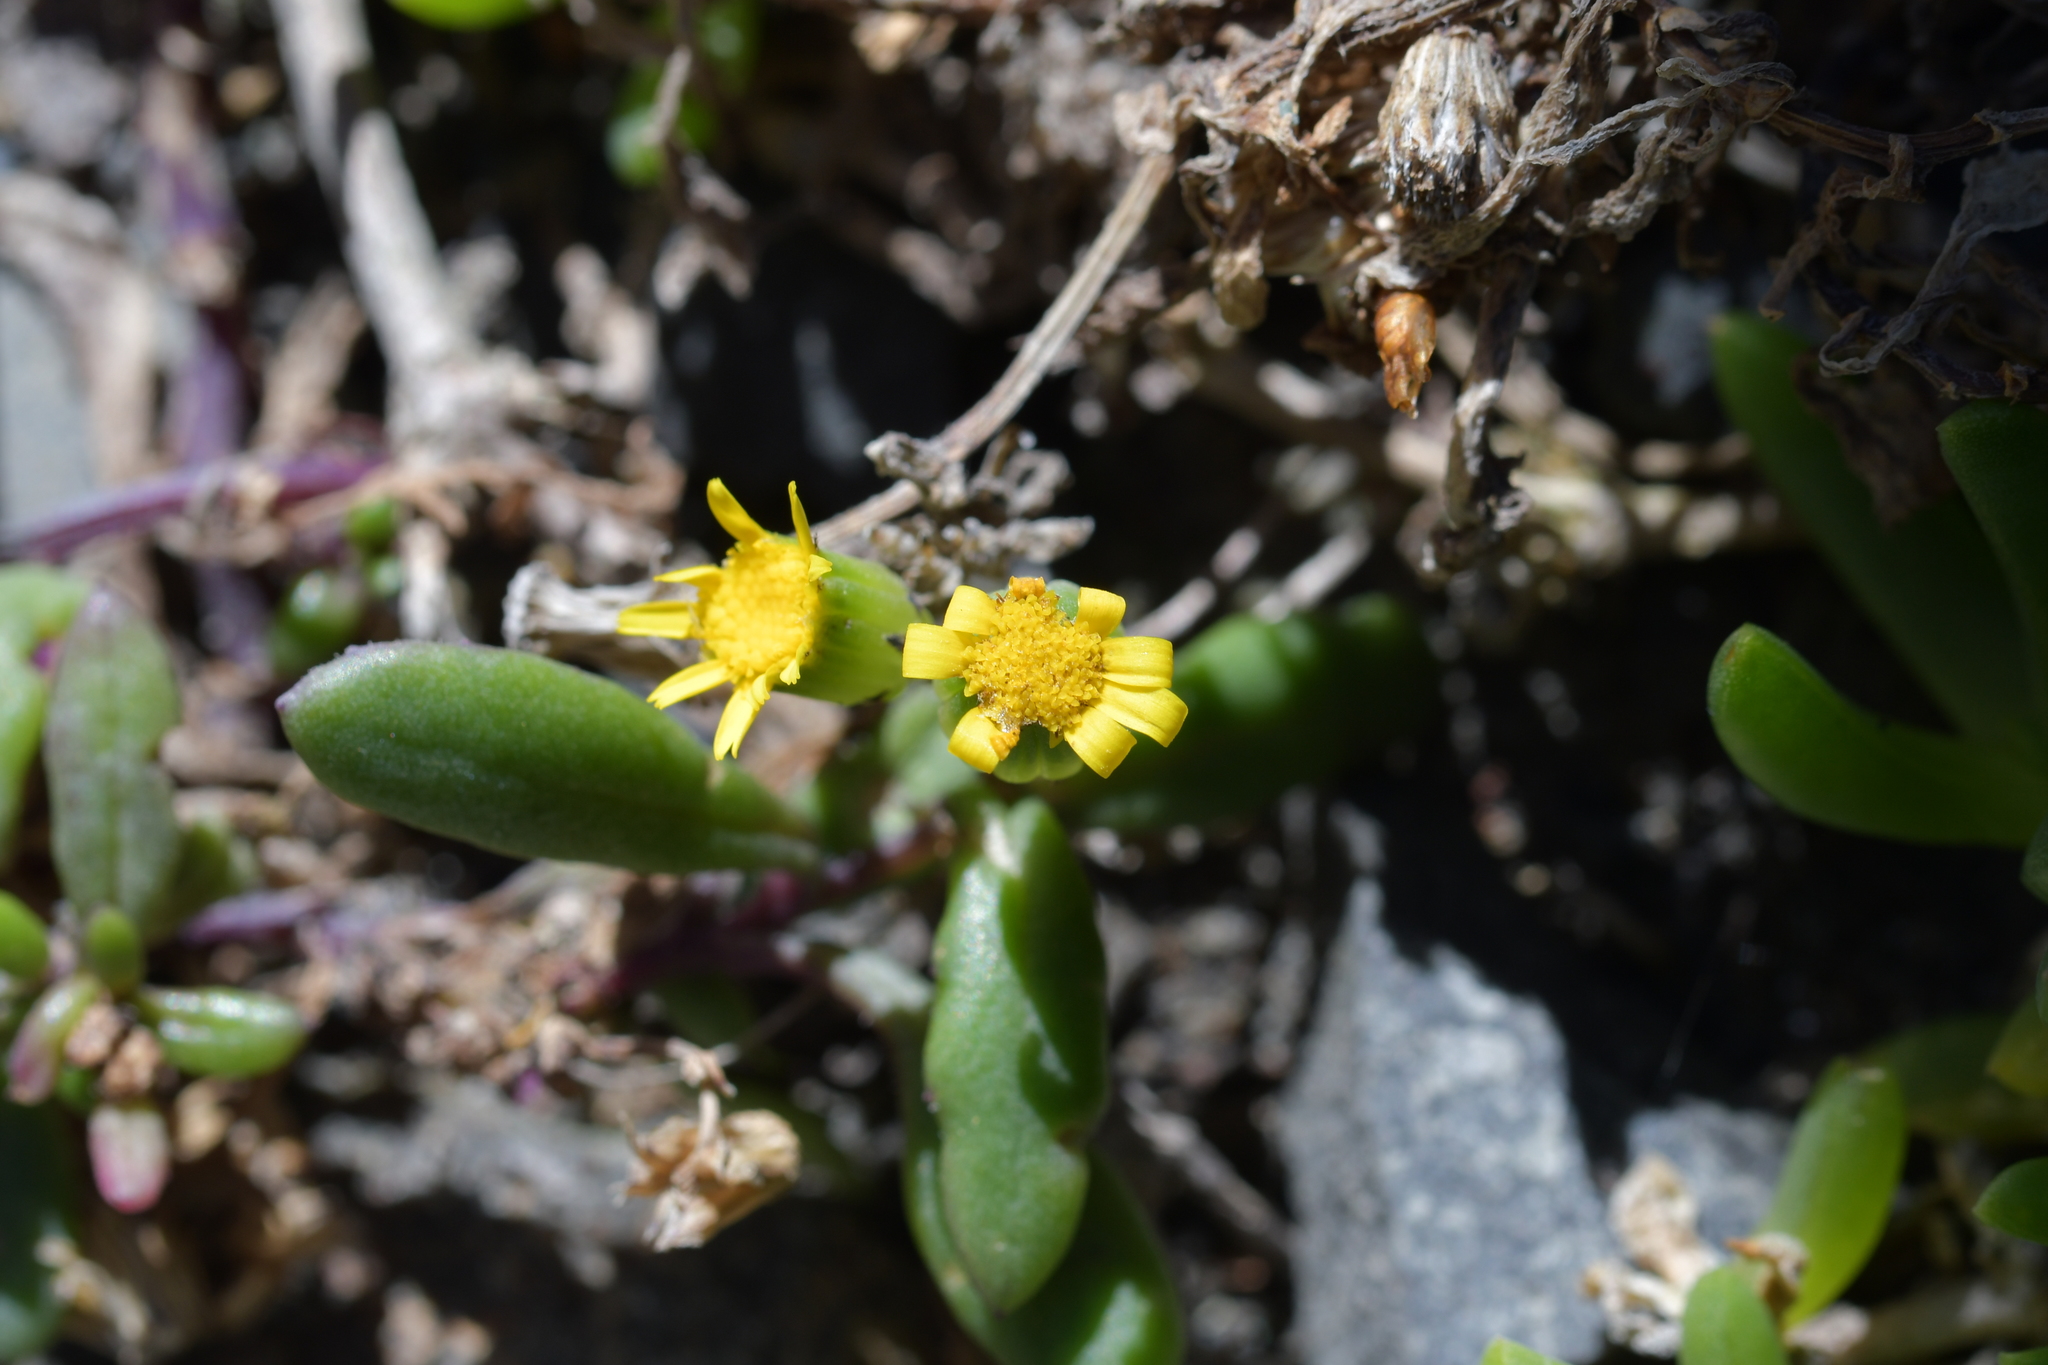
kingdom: Plantae
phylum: Tracheophyta
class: Magnoliopsida
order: Asterales
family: Asteraceae
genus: Senecio
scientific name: Senecio lautus
